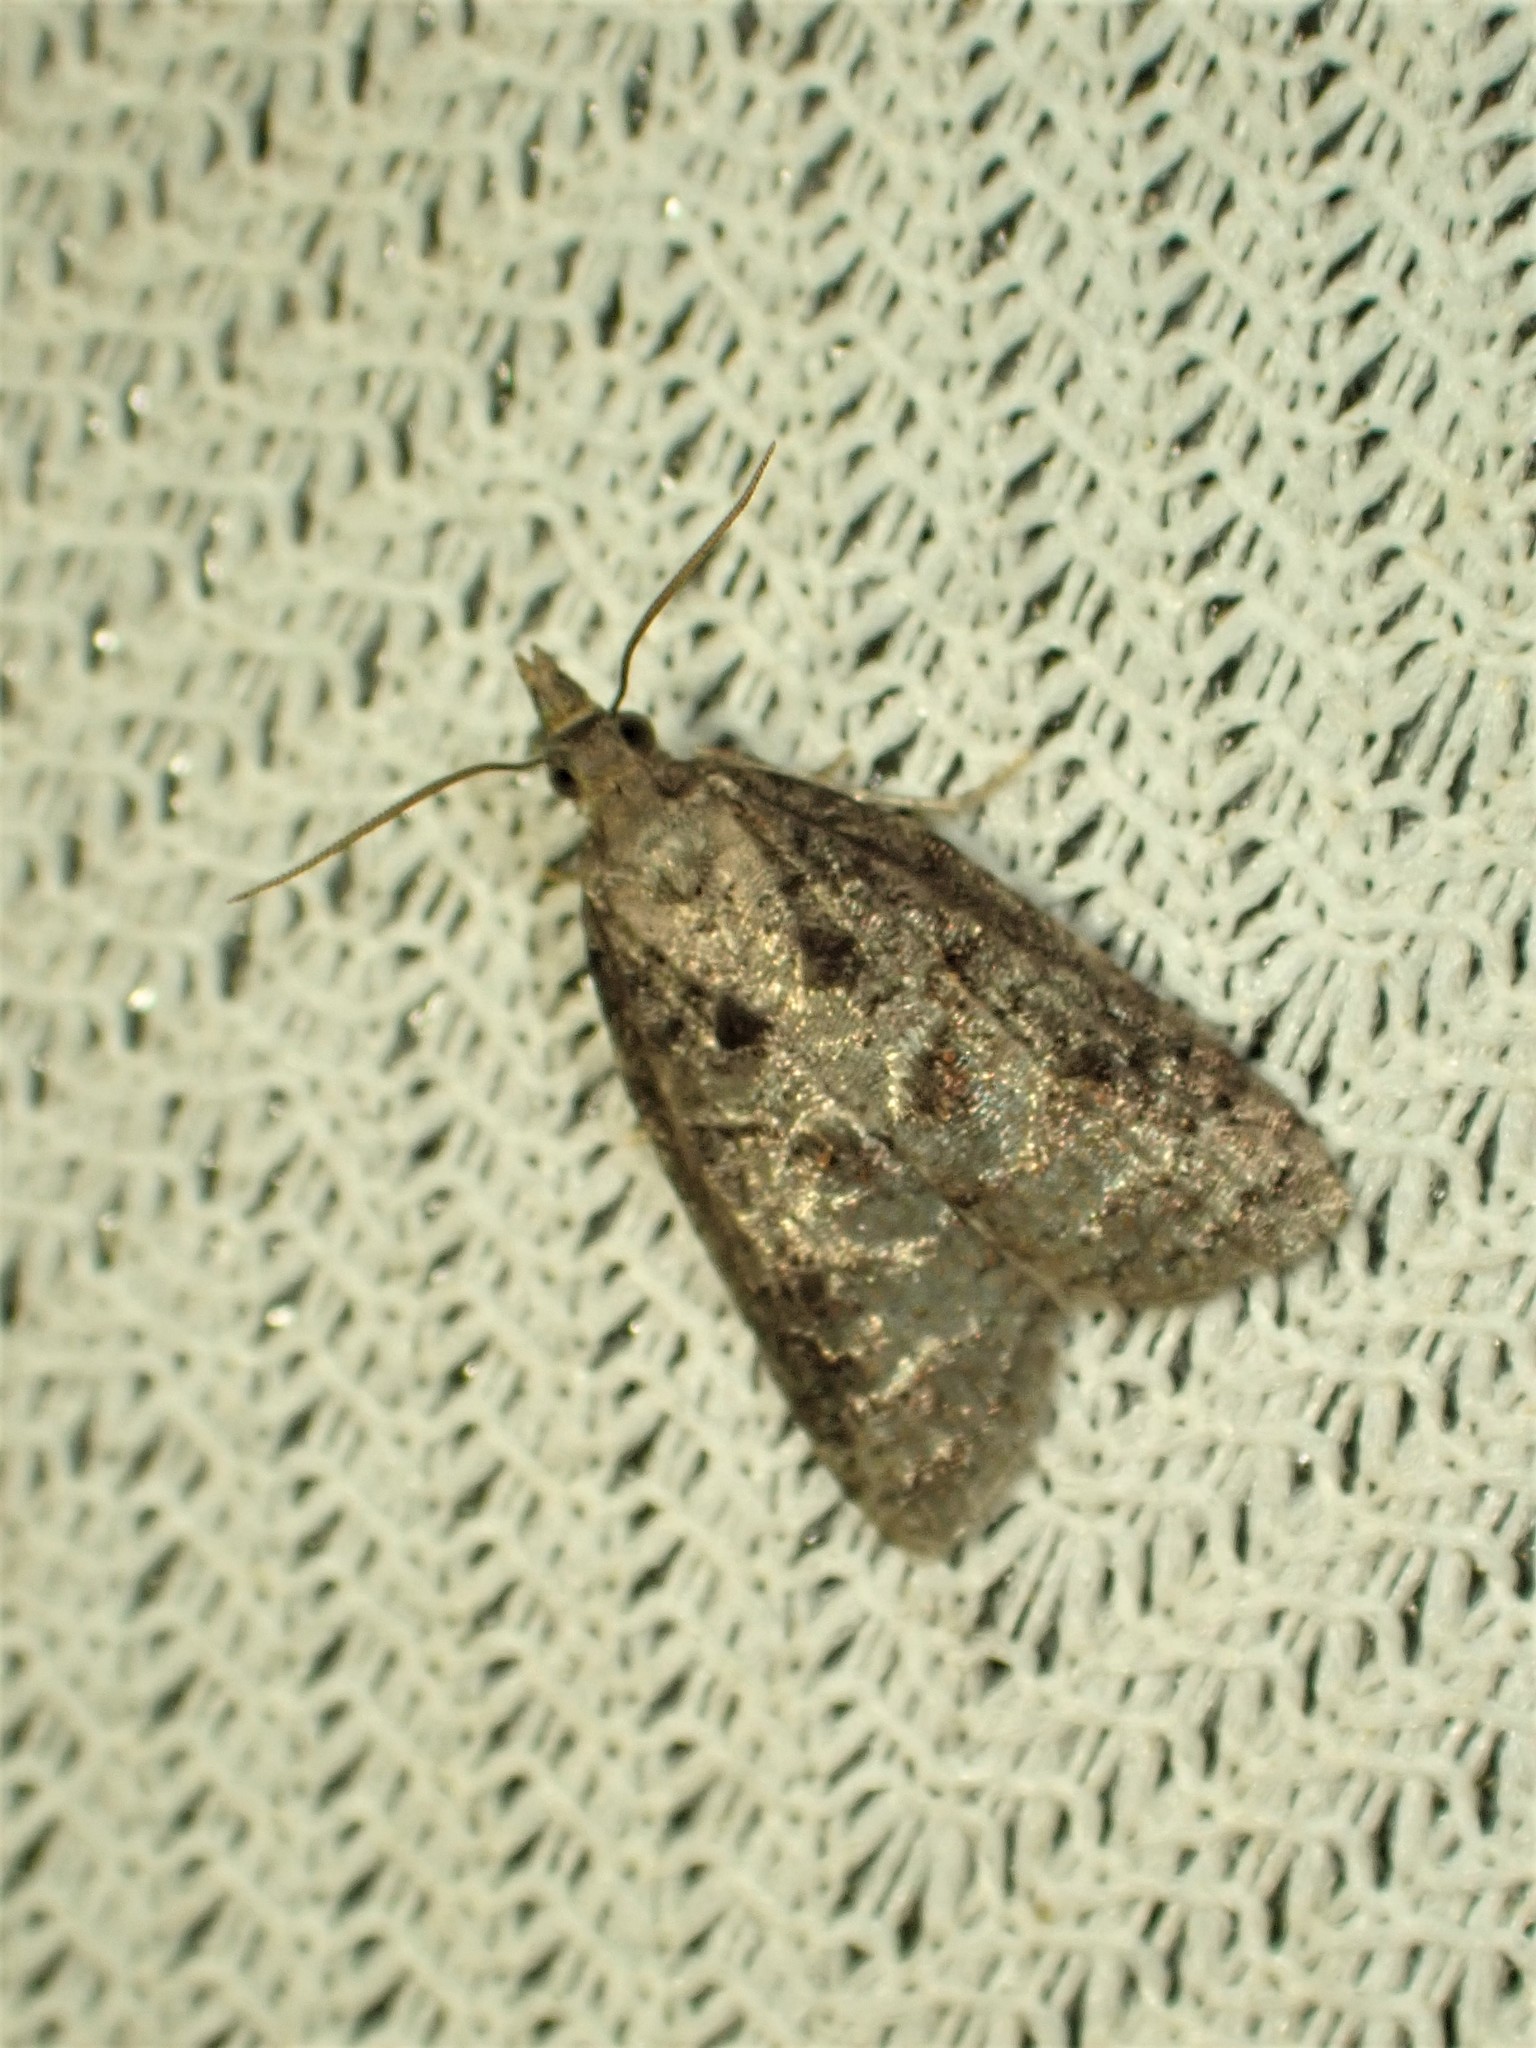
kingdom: Animalia
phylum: Arthropoda
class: Insecta
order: Lepidoptera
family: Tortricidae
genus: Platynota
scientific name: Platynota idaeusalis
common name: Tufted apple bud moth
